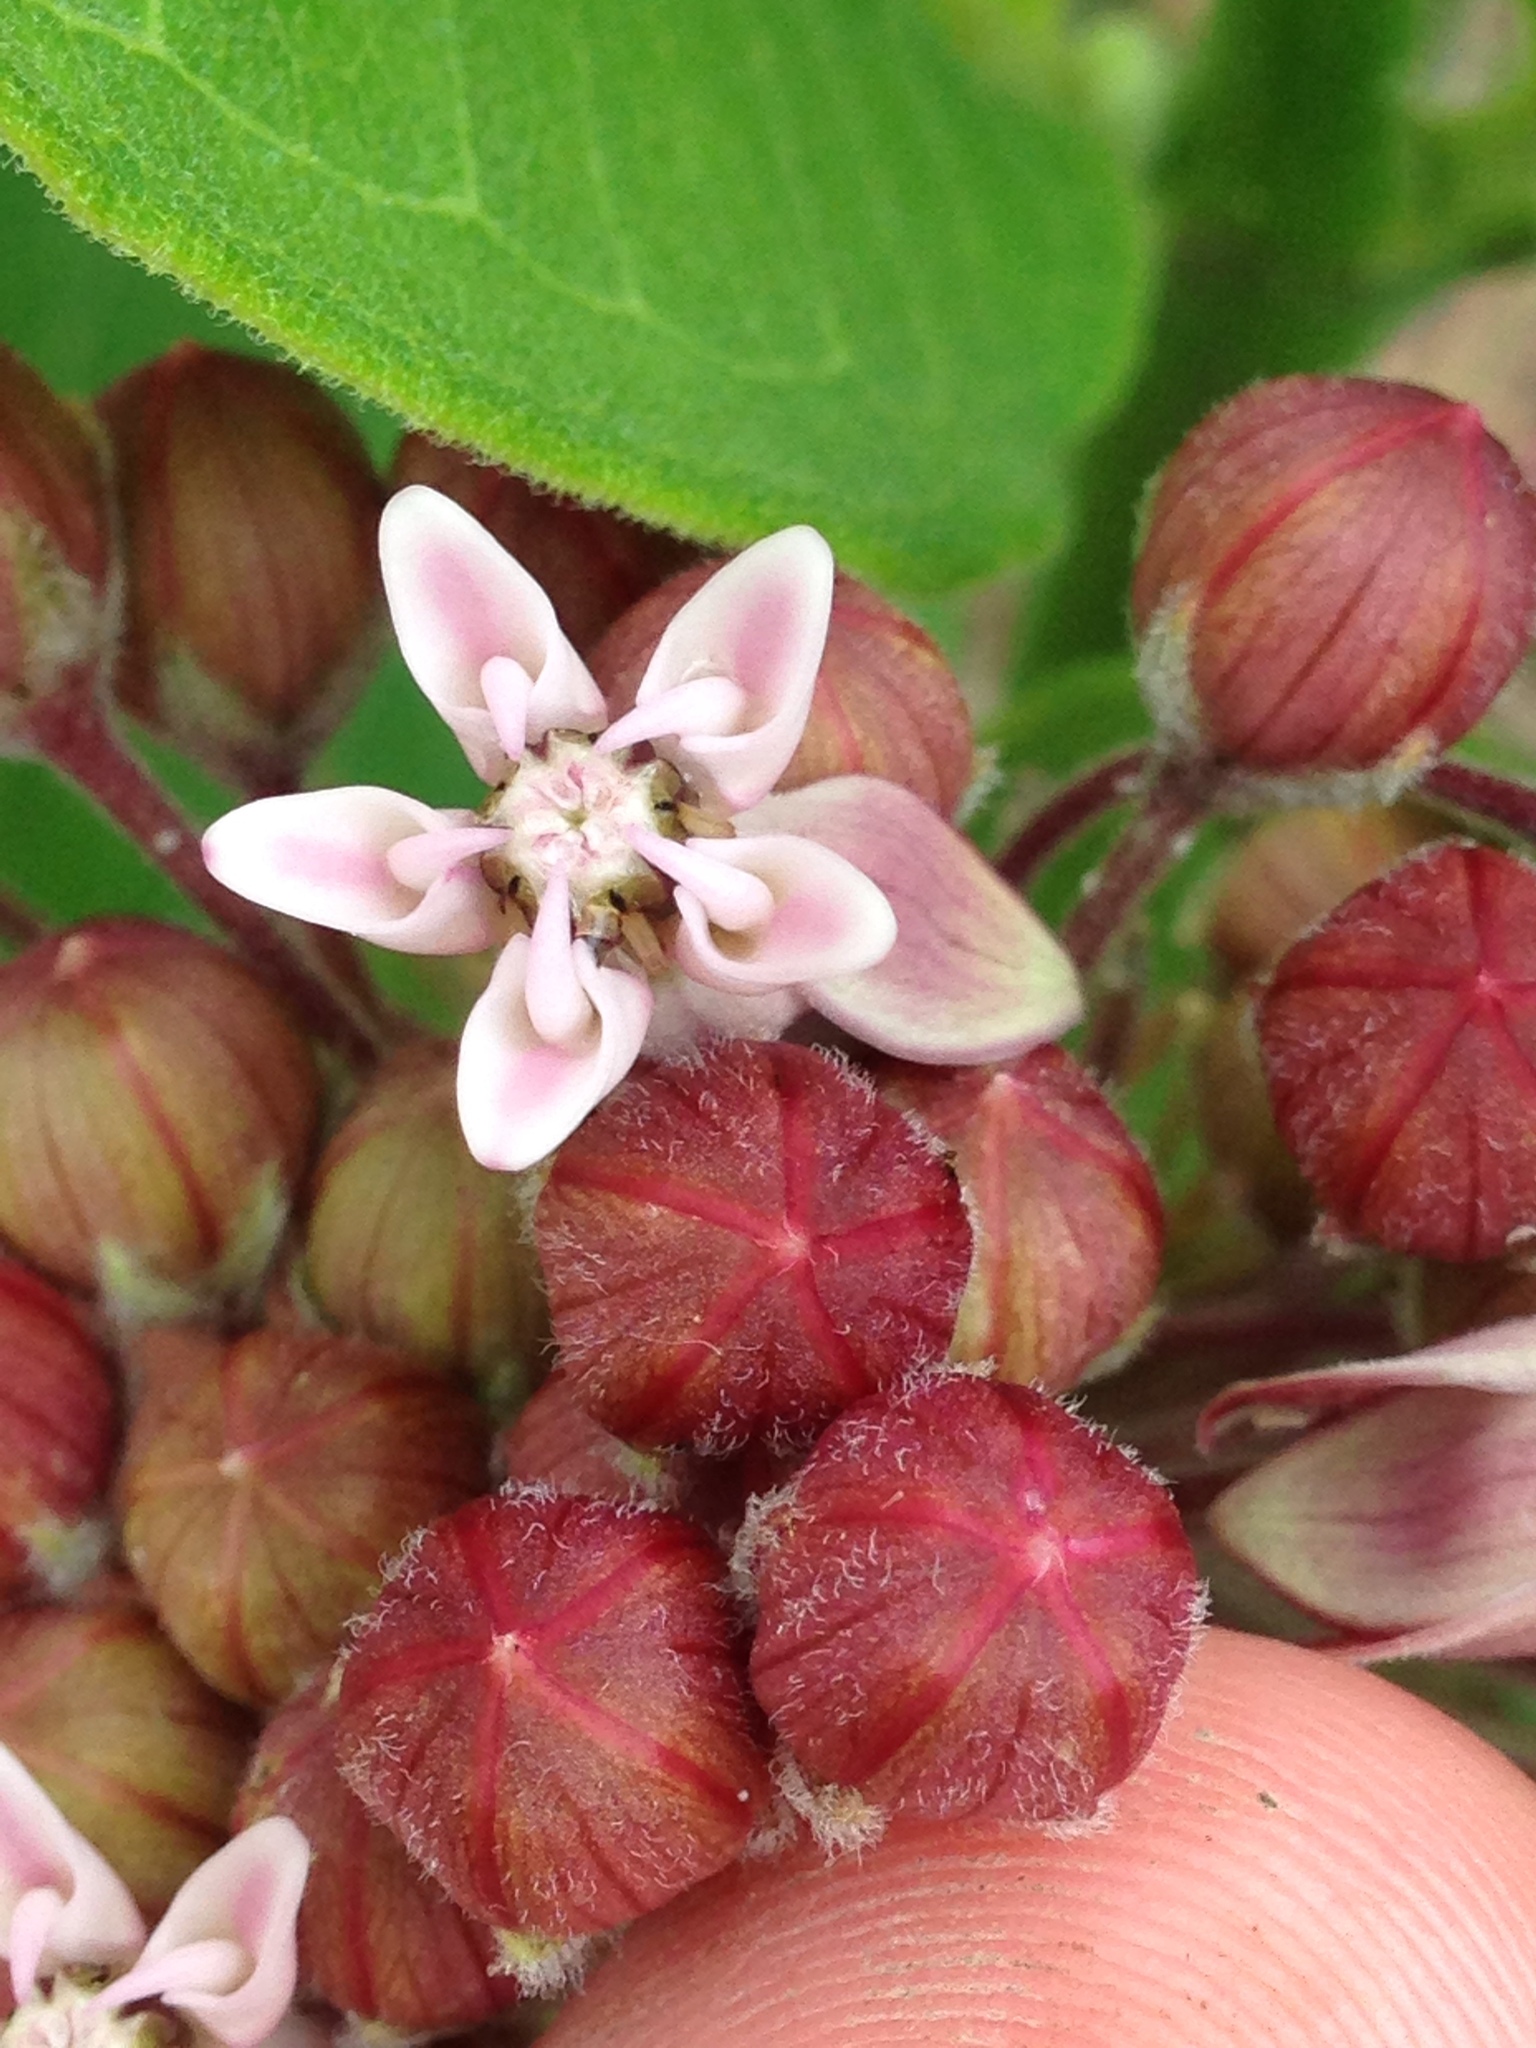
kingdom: Plantae
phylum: Tracheophyta
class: Magnoliopsida
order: Gentianales
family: Apocynaceae
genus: Asclepias
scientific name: Asclepias syriaca
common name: Common milkweed
